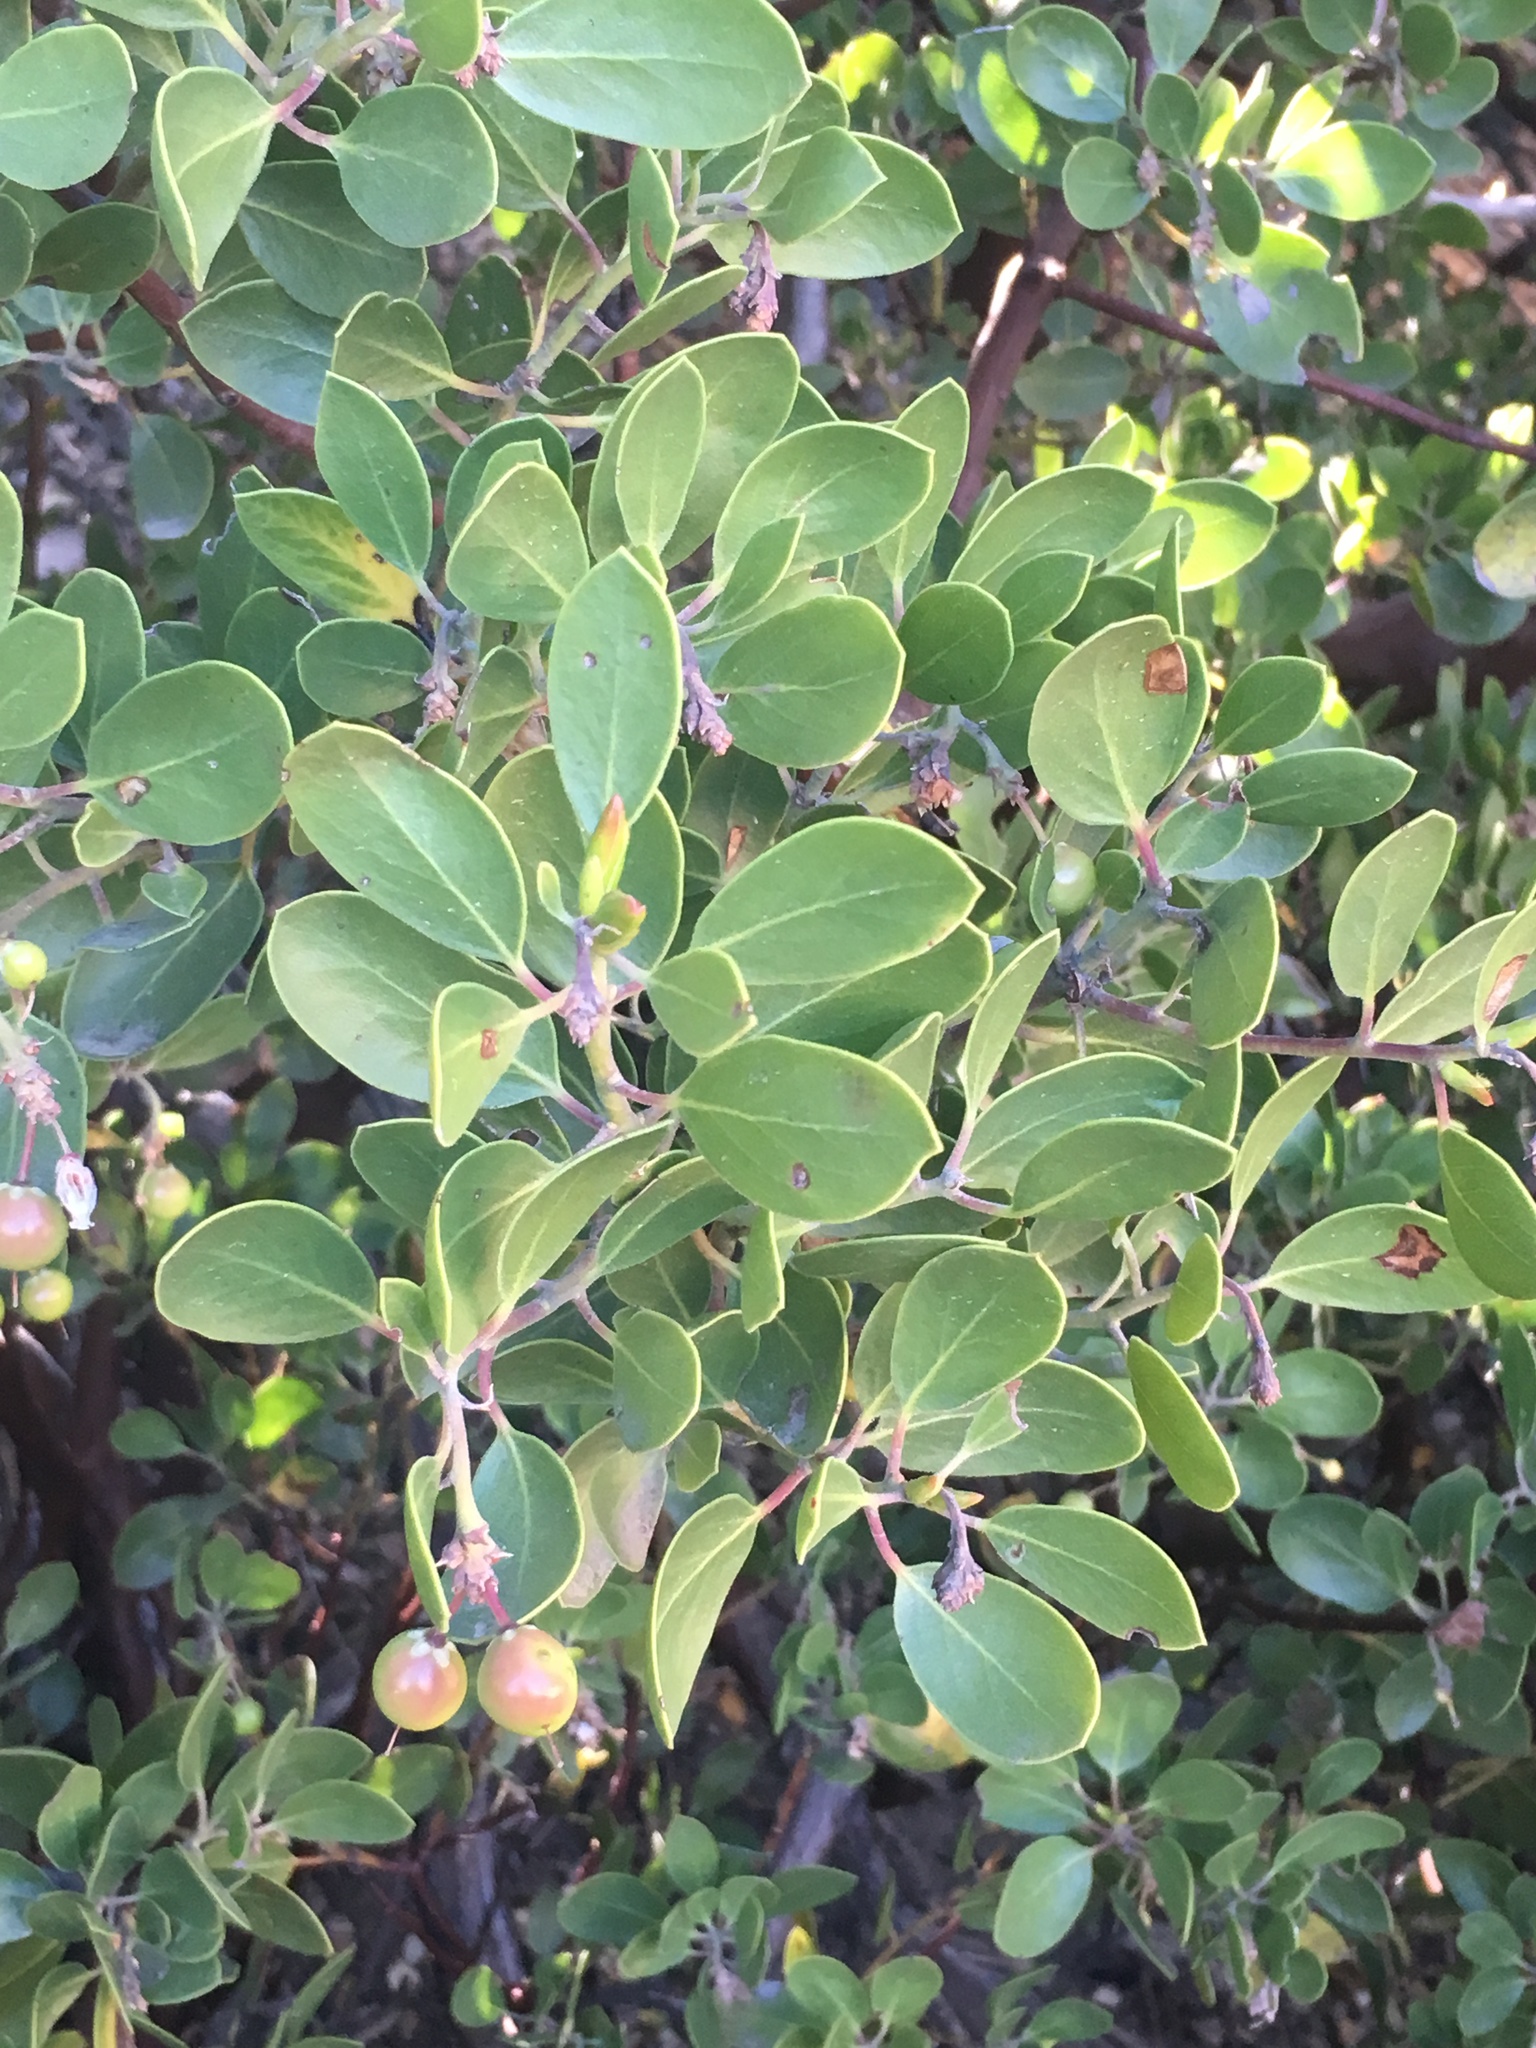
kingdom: Plantae
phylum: Tracheophyta
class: Magnoliopsida
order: Ericales
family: Ericaceae
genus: Arctostaphylos
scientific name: Arctostaphylos parryana
